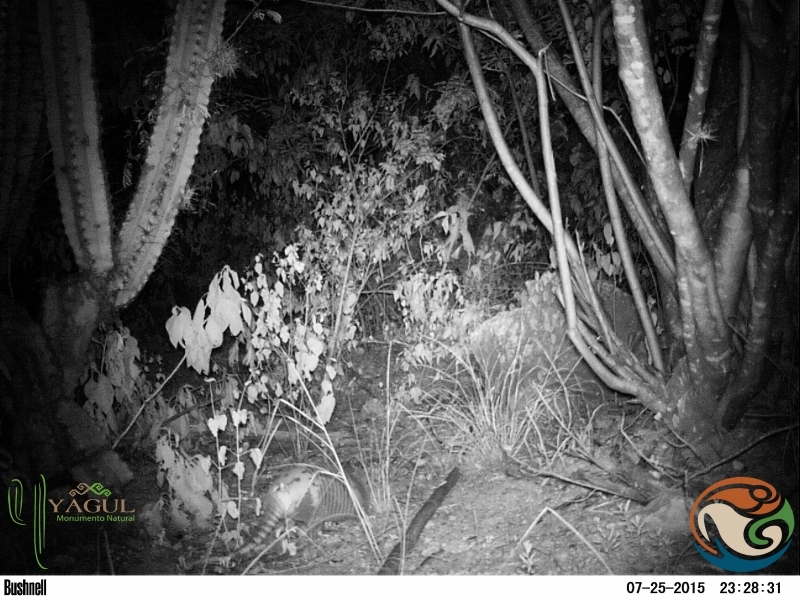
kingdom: Animalia
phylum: Chordata
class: Mammalia
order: Cingulata
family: Dasypodidae
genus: Dasypus
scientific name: Dasypus novemcinctus
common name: Nine-banded armadillo
